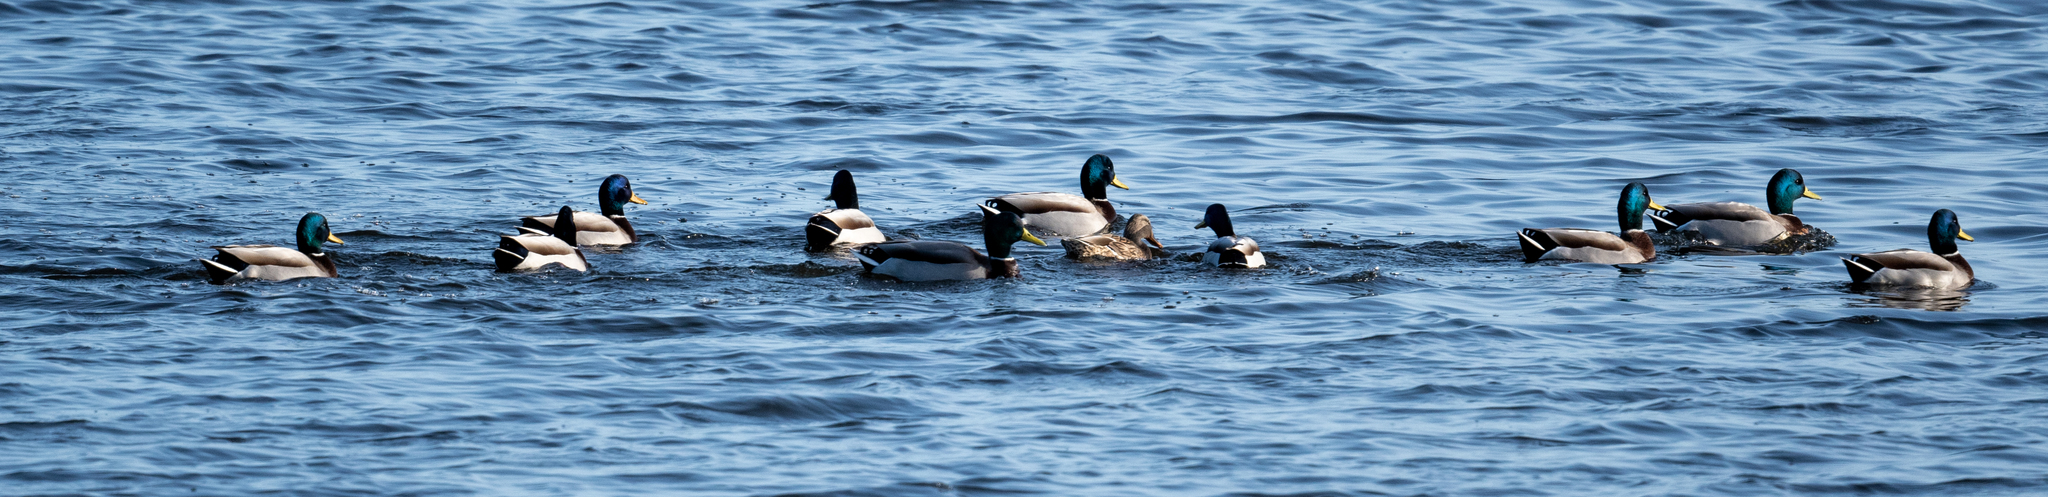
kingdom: Animalia
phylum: Chordata
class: Aves
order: Anseriformes
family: Anatidae
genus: Anas
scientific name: Anas platyrhynchos
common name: Mallard
